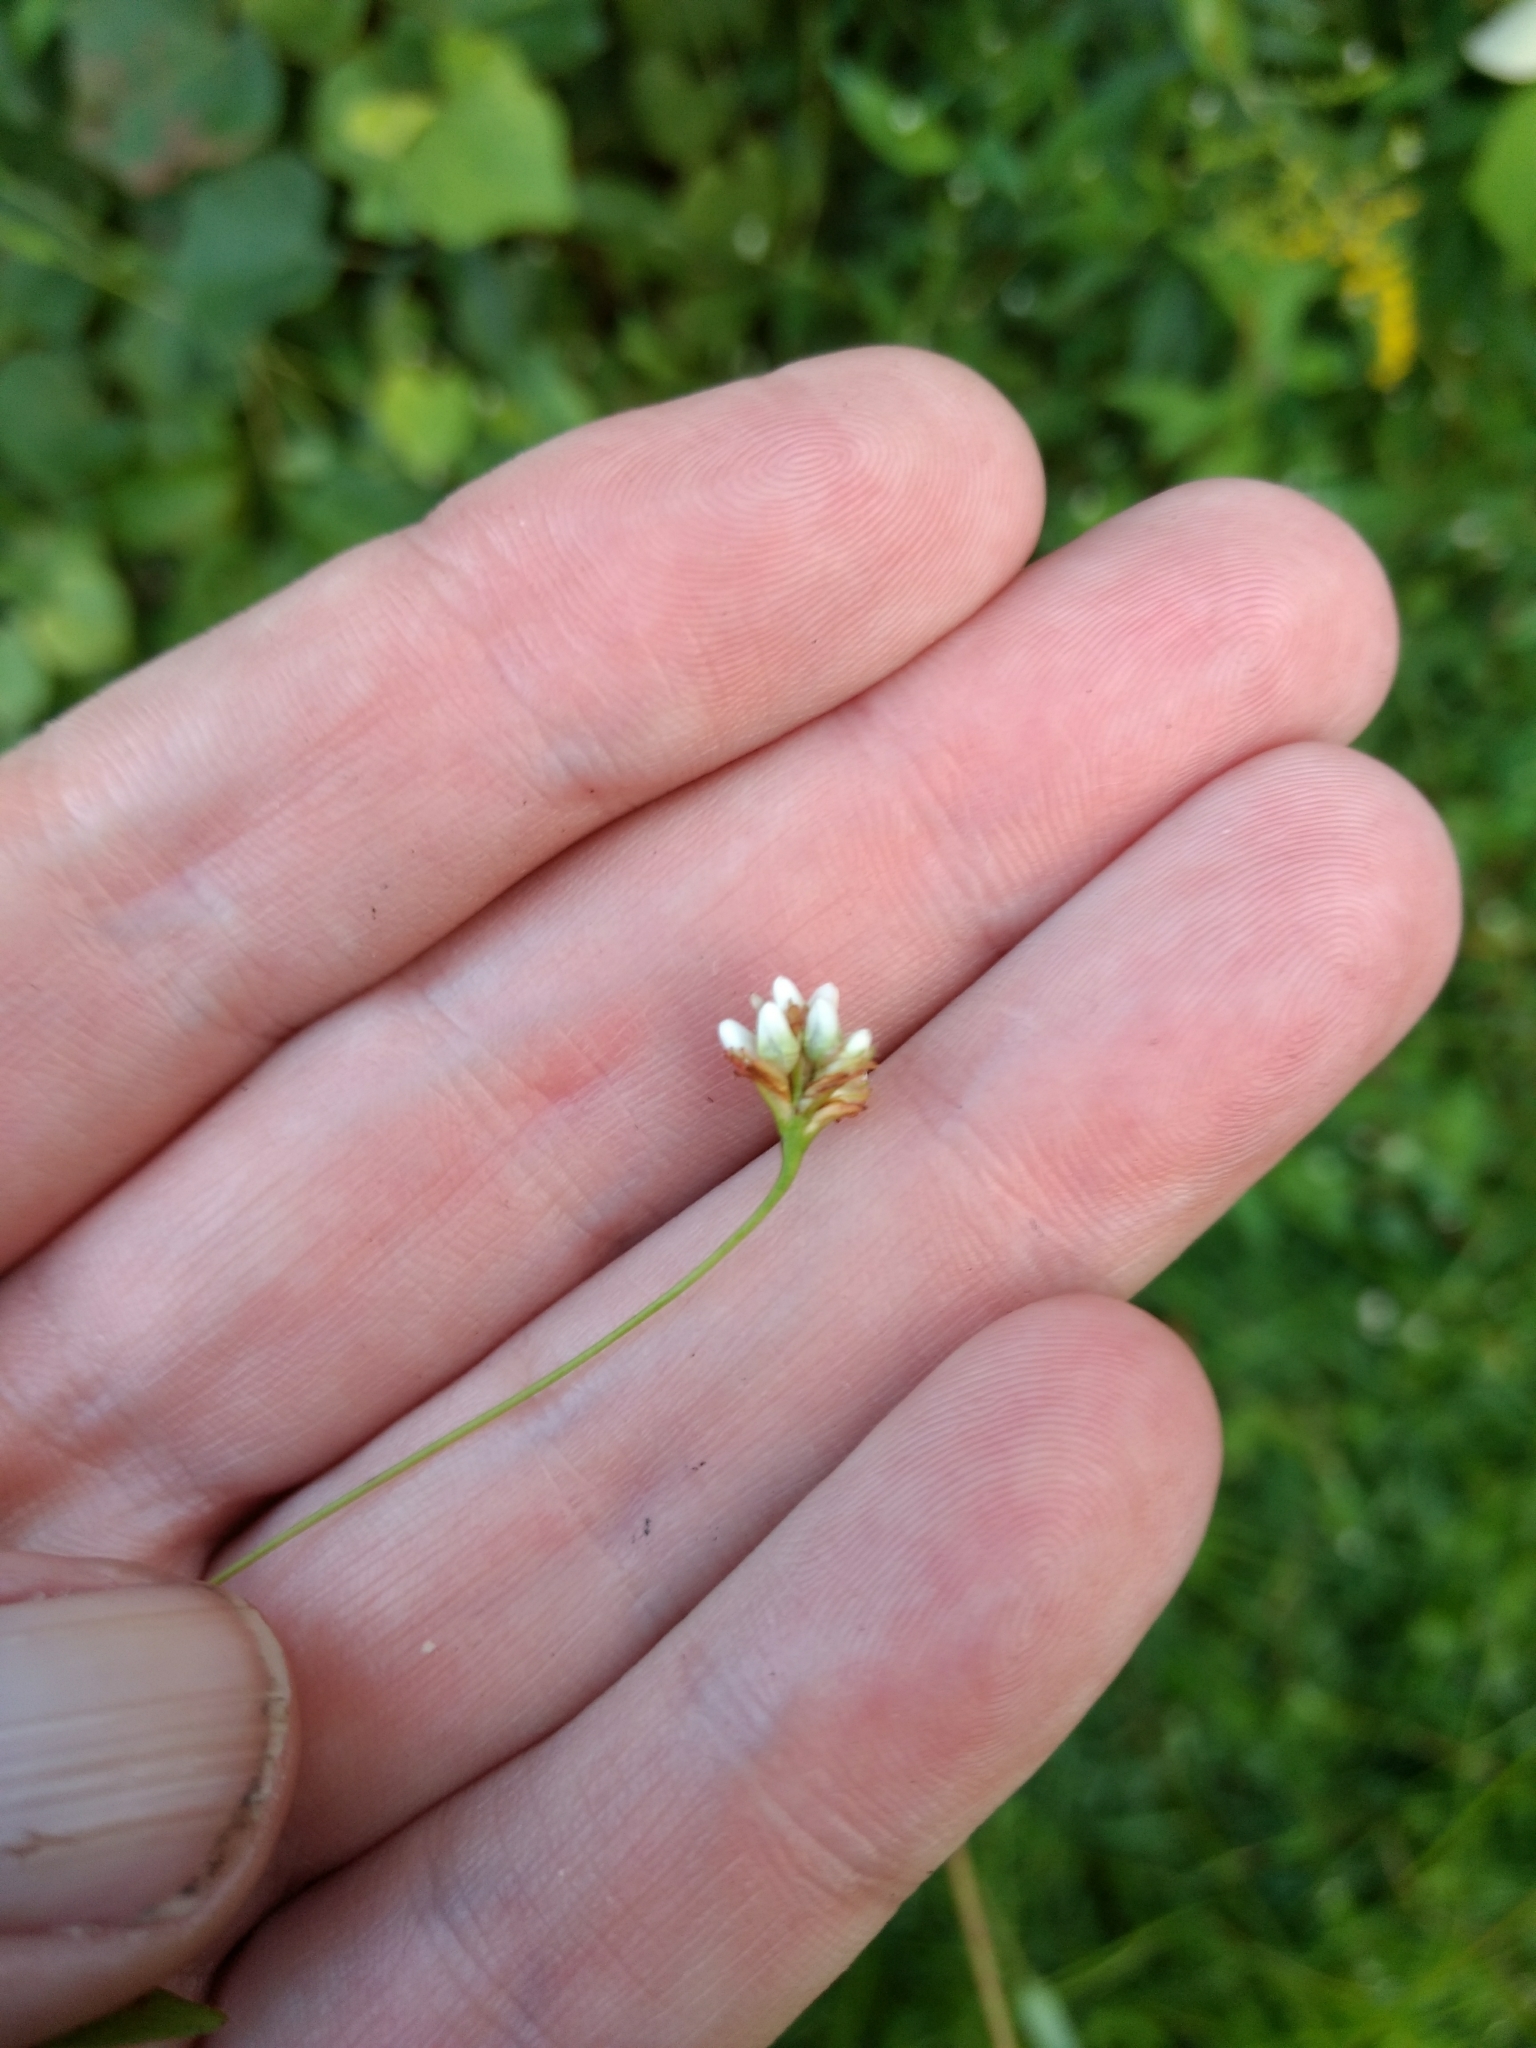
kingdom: Plantae
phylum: Tracheophyta
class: Magnoliopsida
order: Caryophyllales
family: Polygonaceae
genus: Persicaria
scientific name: Persicaria sagittata
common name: American tearthumb
